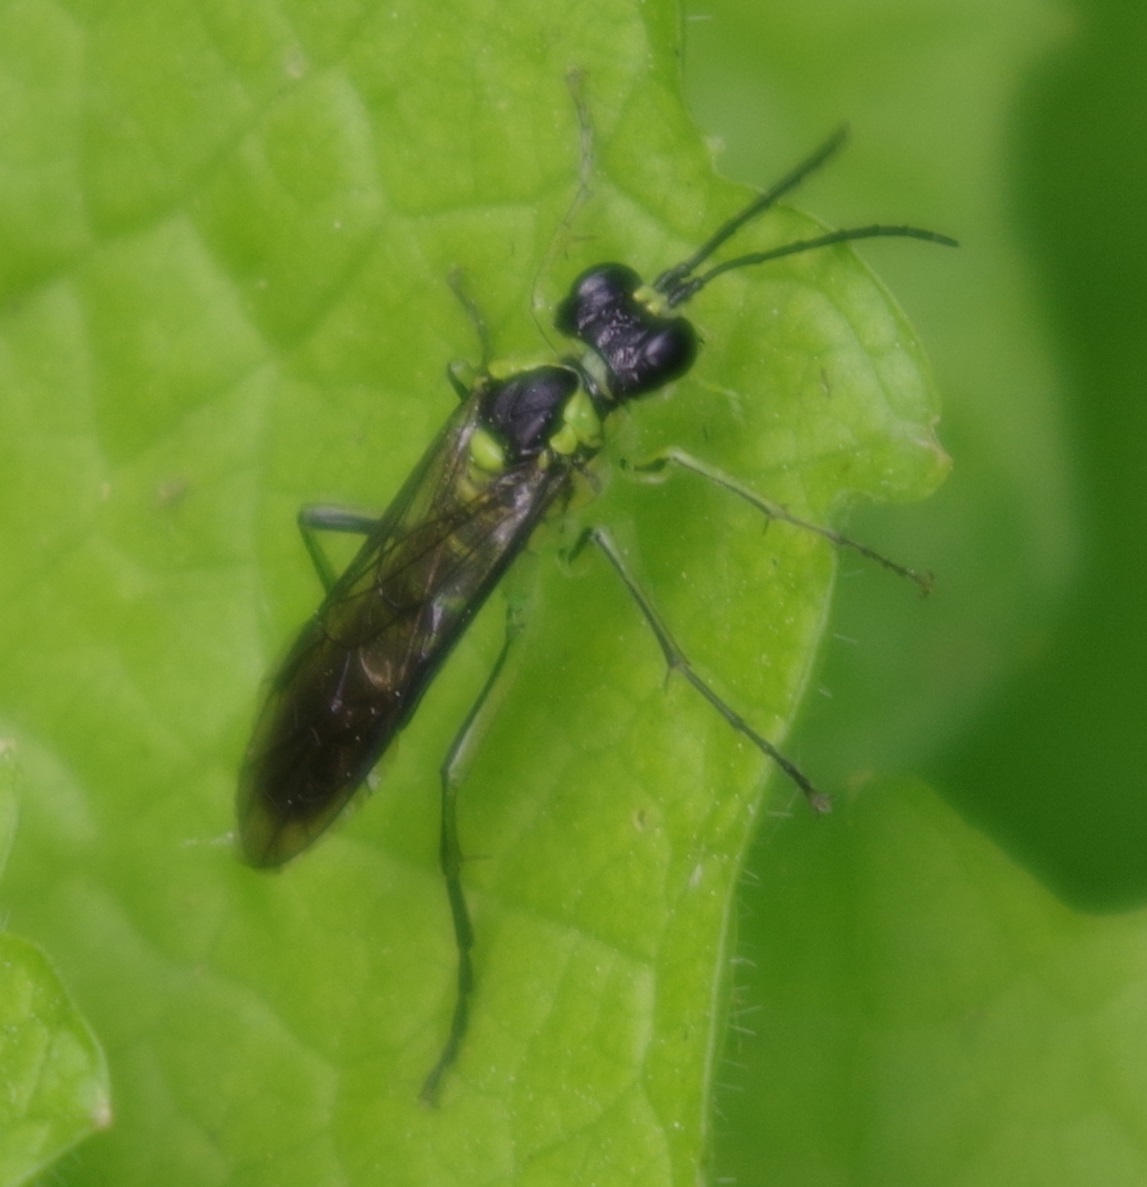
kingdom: Animalia
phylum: Arthropoda
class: Insecta
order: Hymenoptera
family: Tenthredinidae
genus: Tenthredo
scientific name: Tenthredo mesomela
